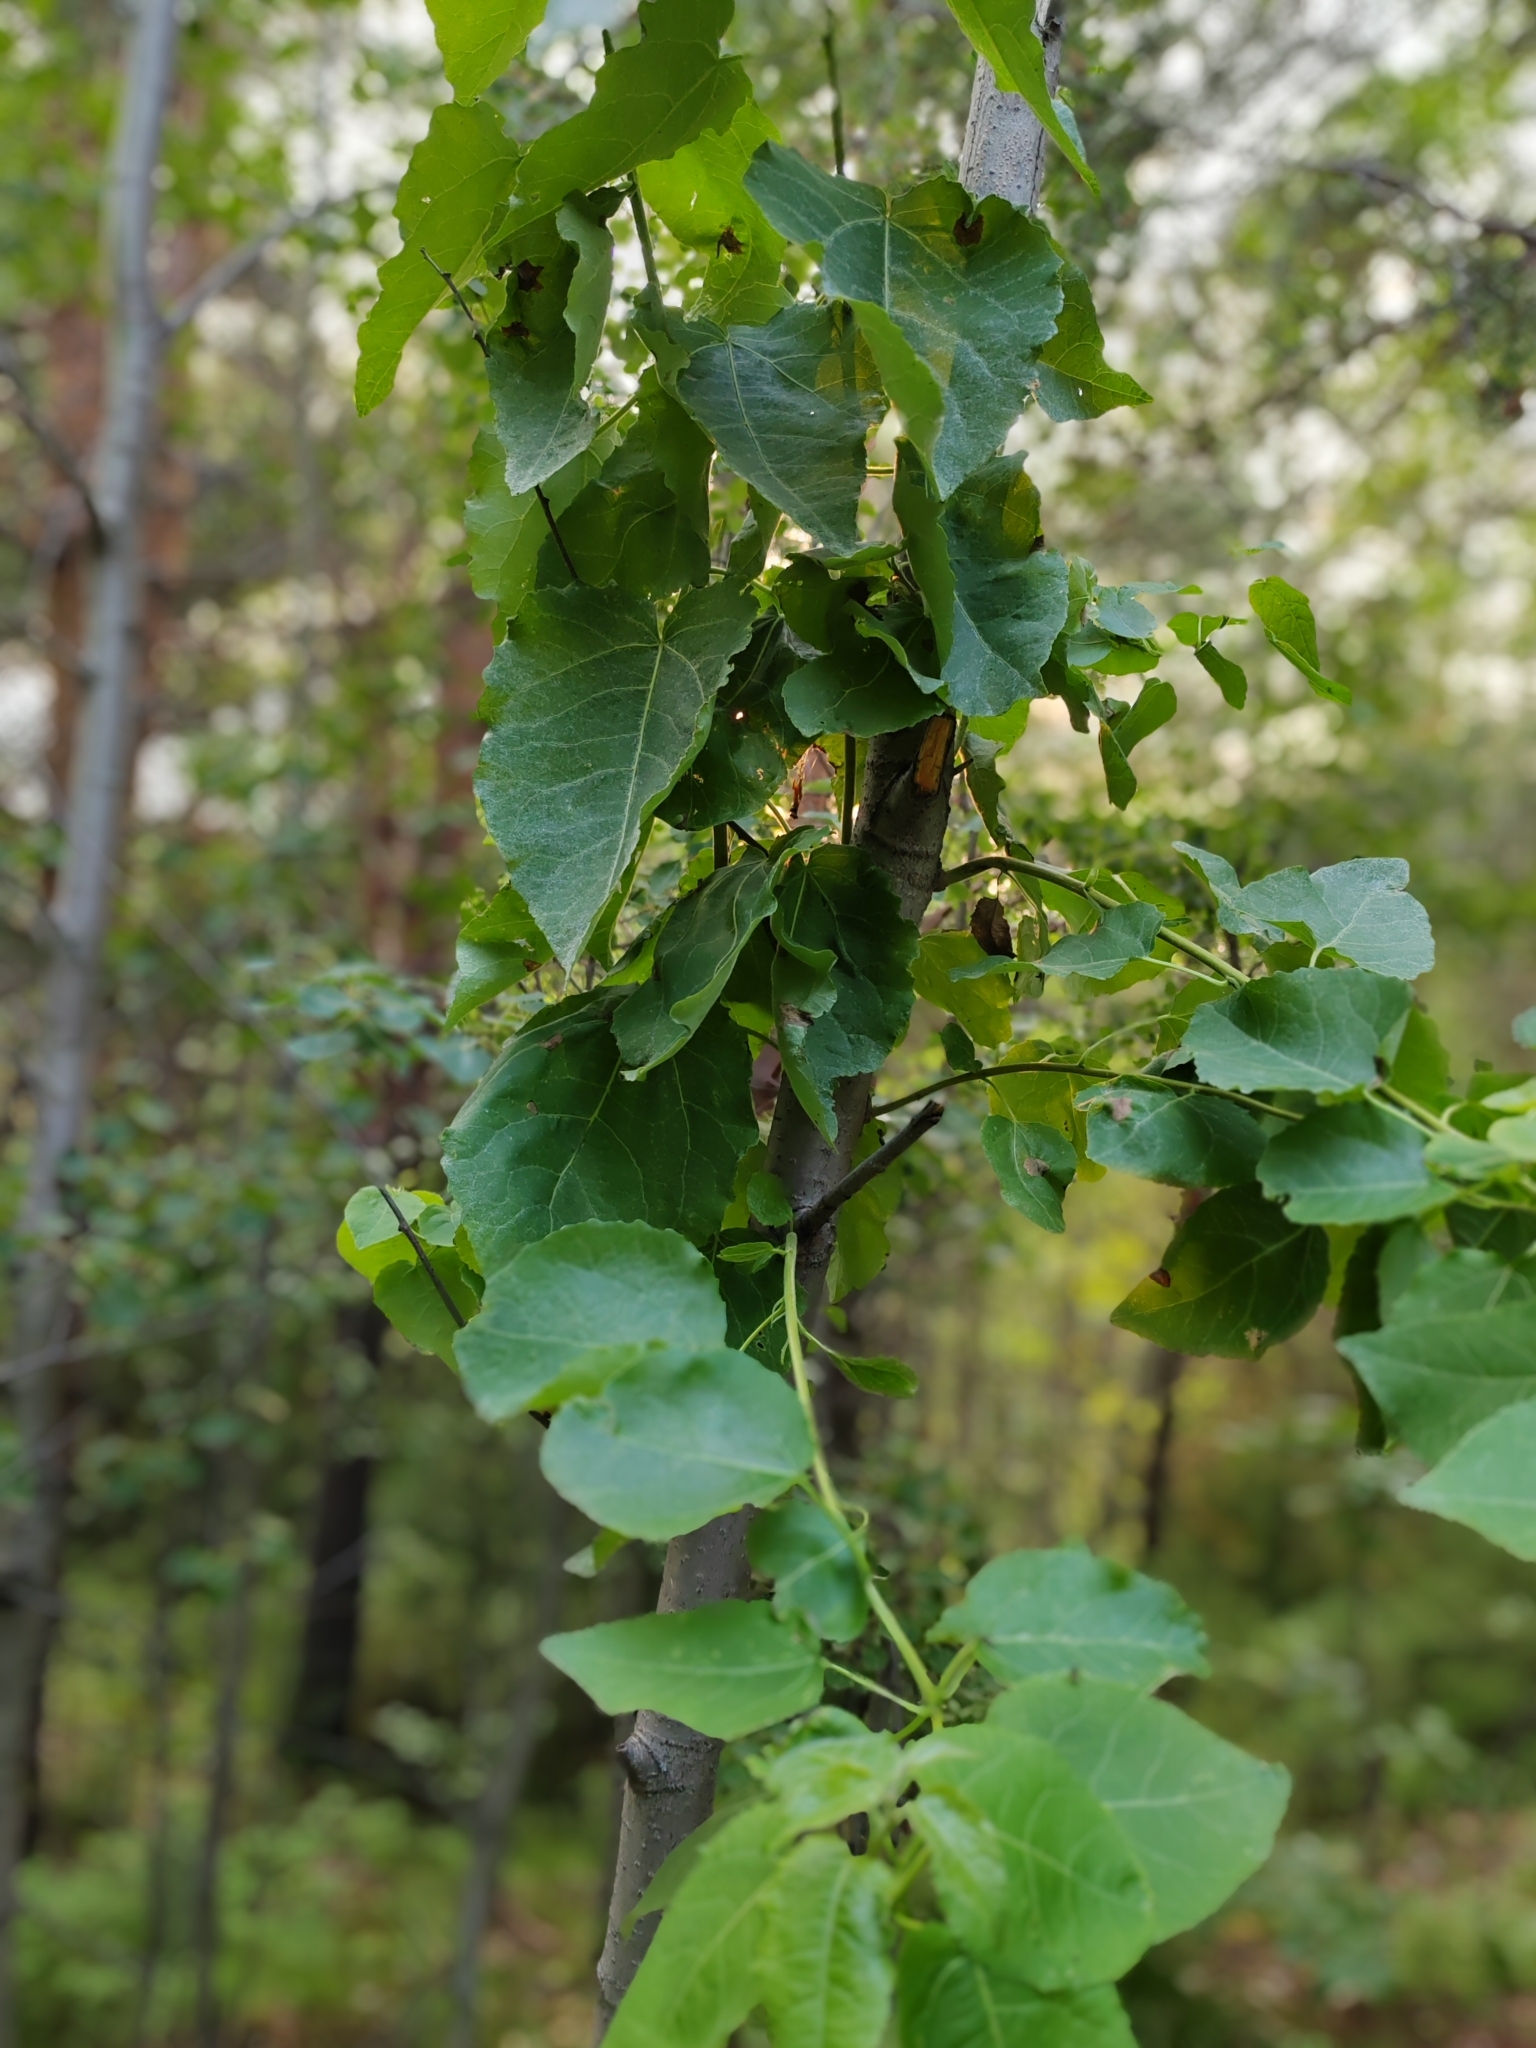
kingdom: Plantae
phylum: Tracheophyta
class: Magnoliopsida
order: Malpighiales
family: Salicaceae
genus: Populus
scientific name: Populus tremula
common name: European aspen
